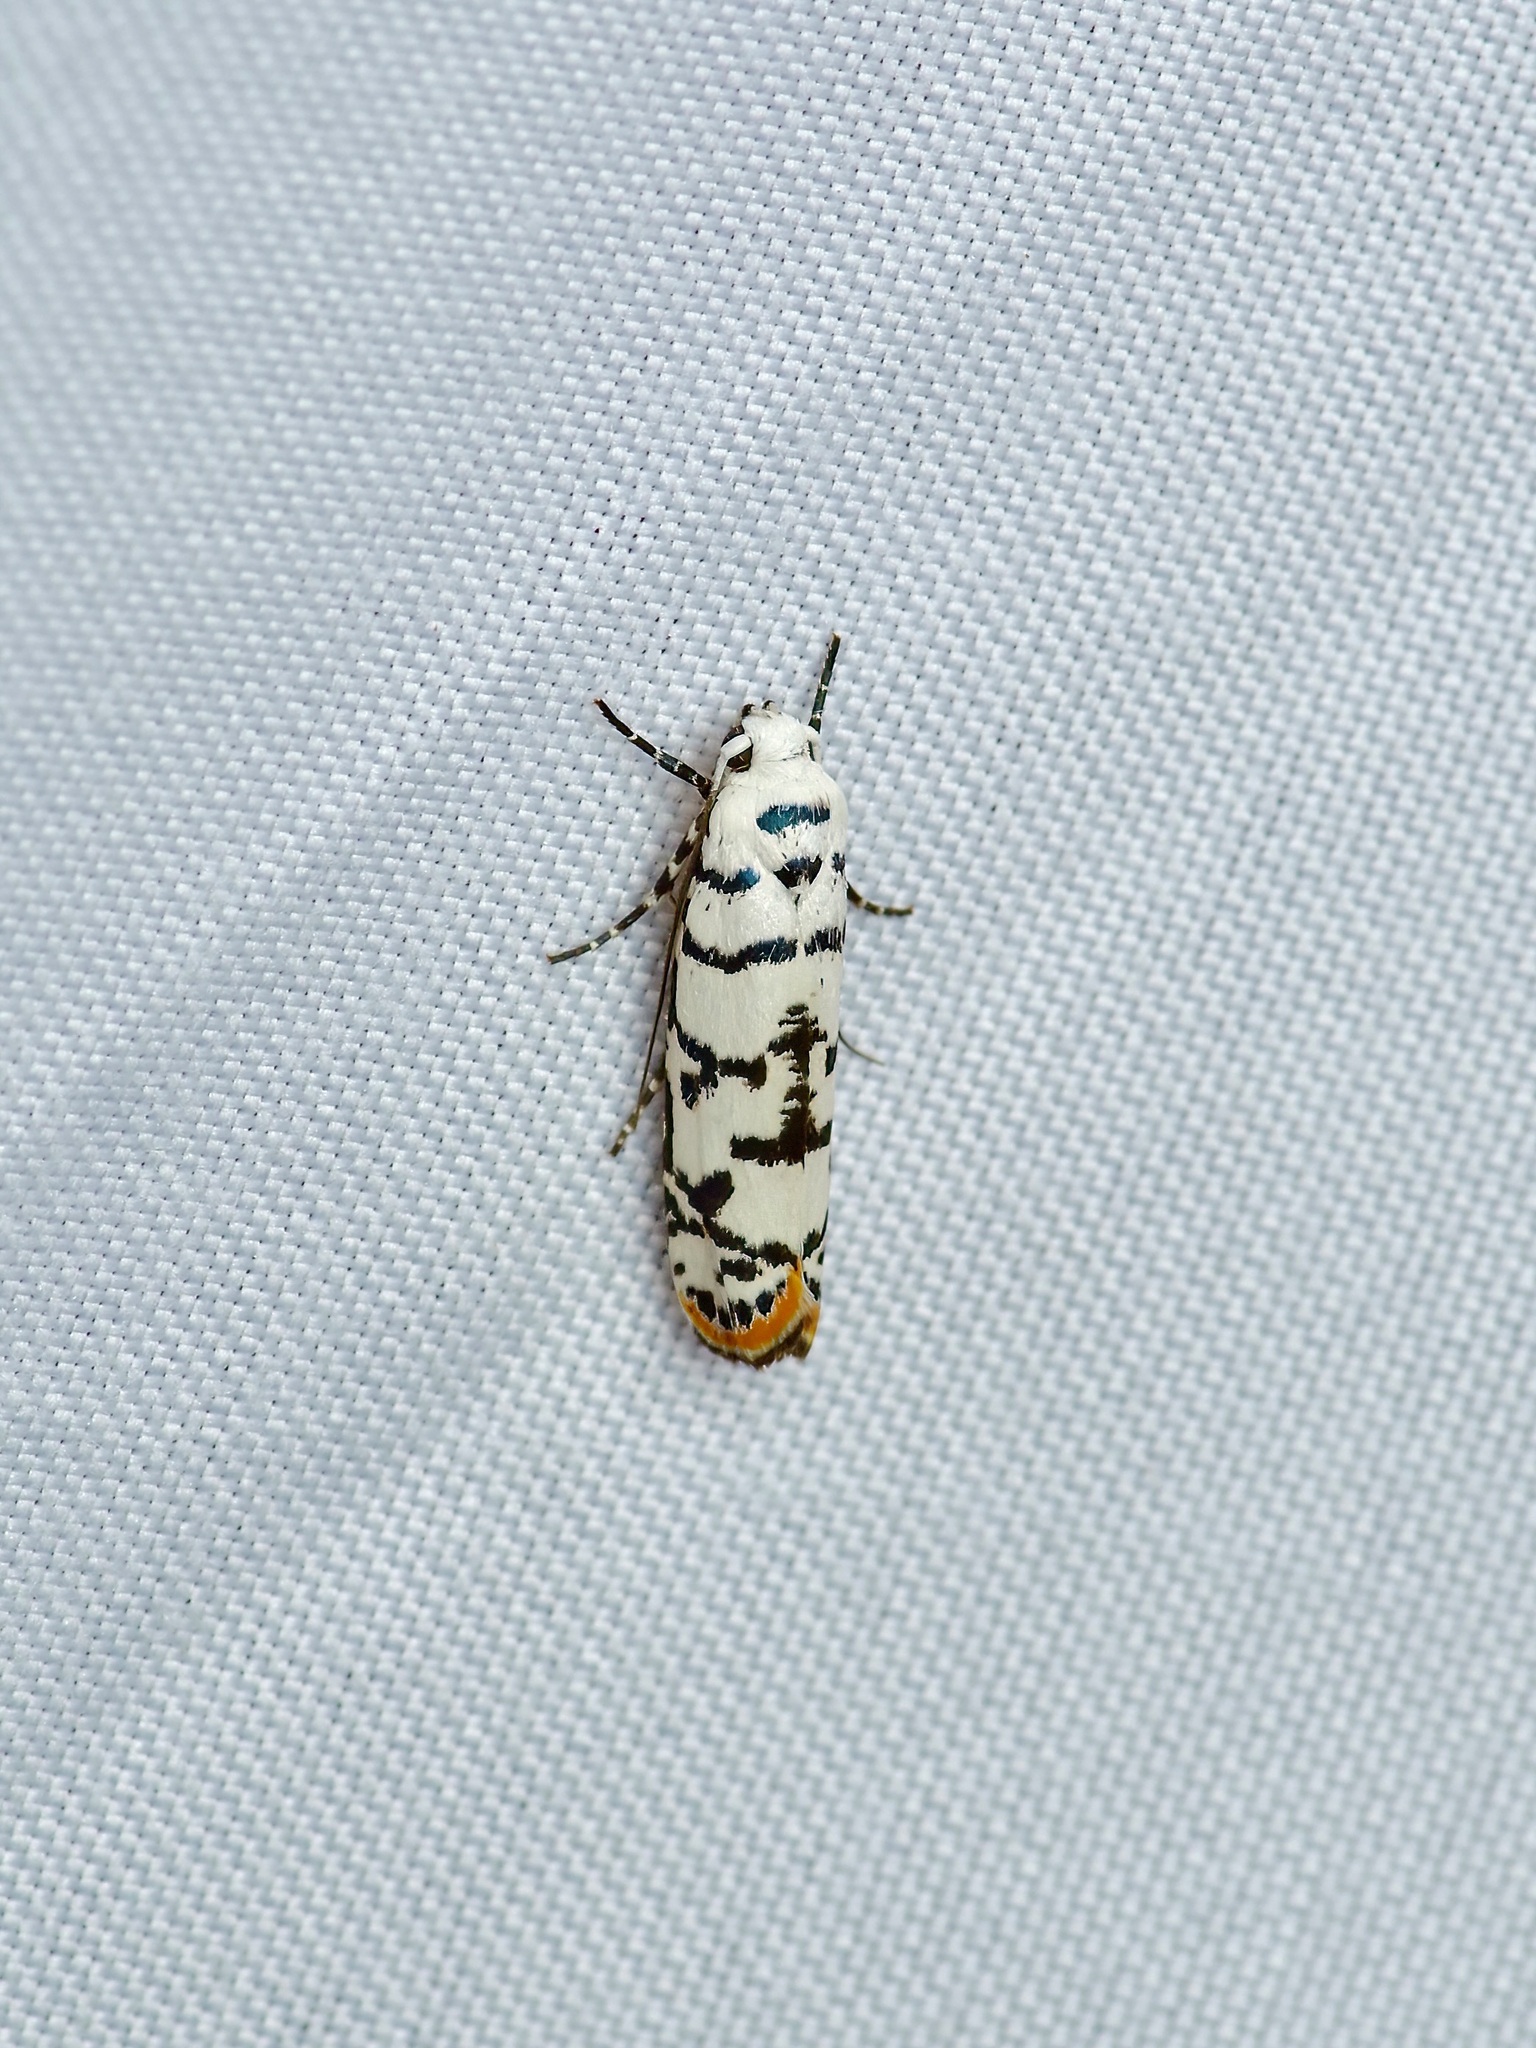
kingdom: Animalia
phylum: Arthropoda
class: Insecta
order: Lepidoptera
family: Ethmiidae
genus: Ethmia
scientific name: Ethmia delliella
